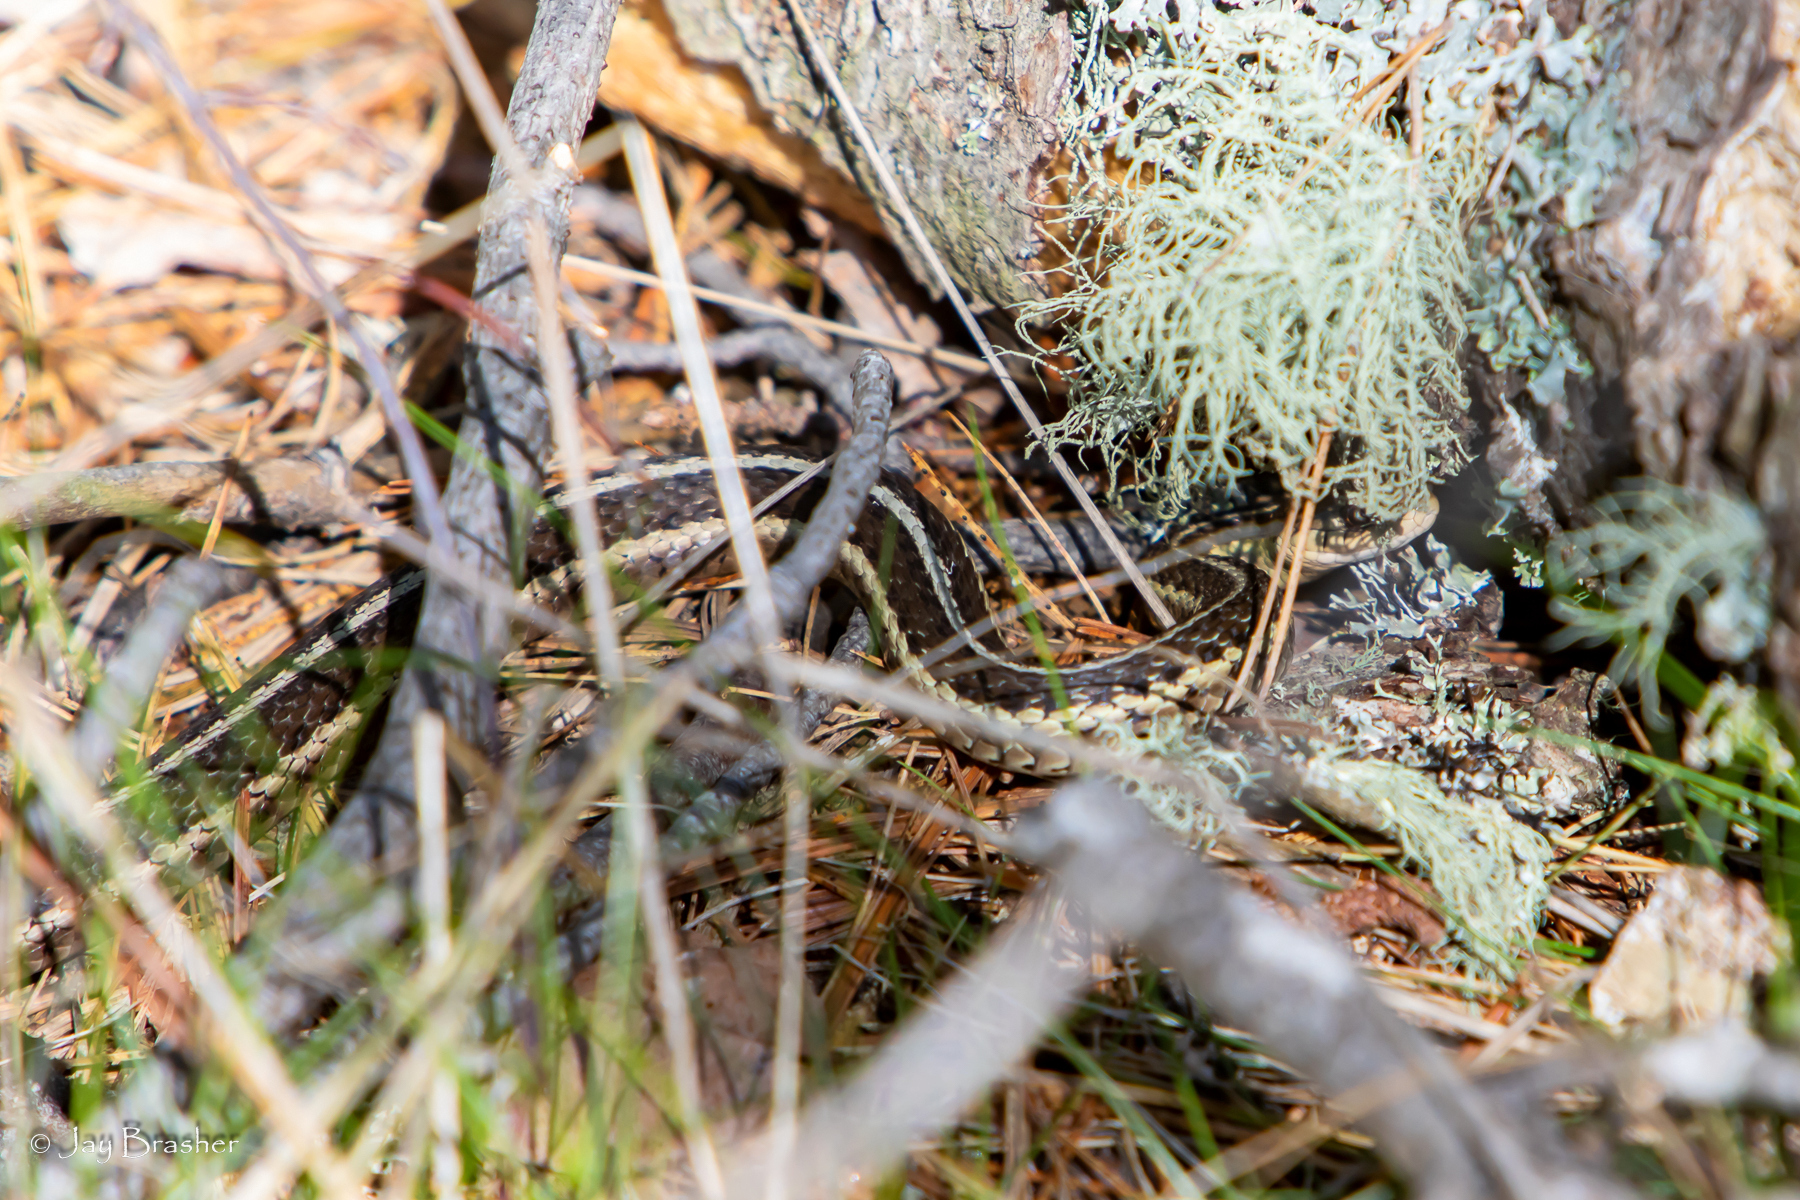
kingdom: Animalia
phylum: Chordata
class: Squamata
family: Colubridae
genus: Thamnophis
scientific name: Thamnophis sirtalis
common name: Common garter snake
